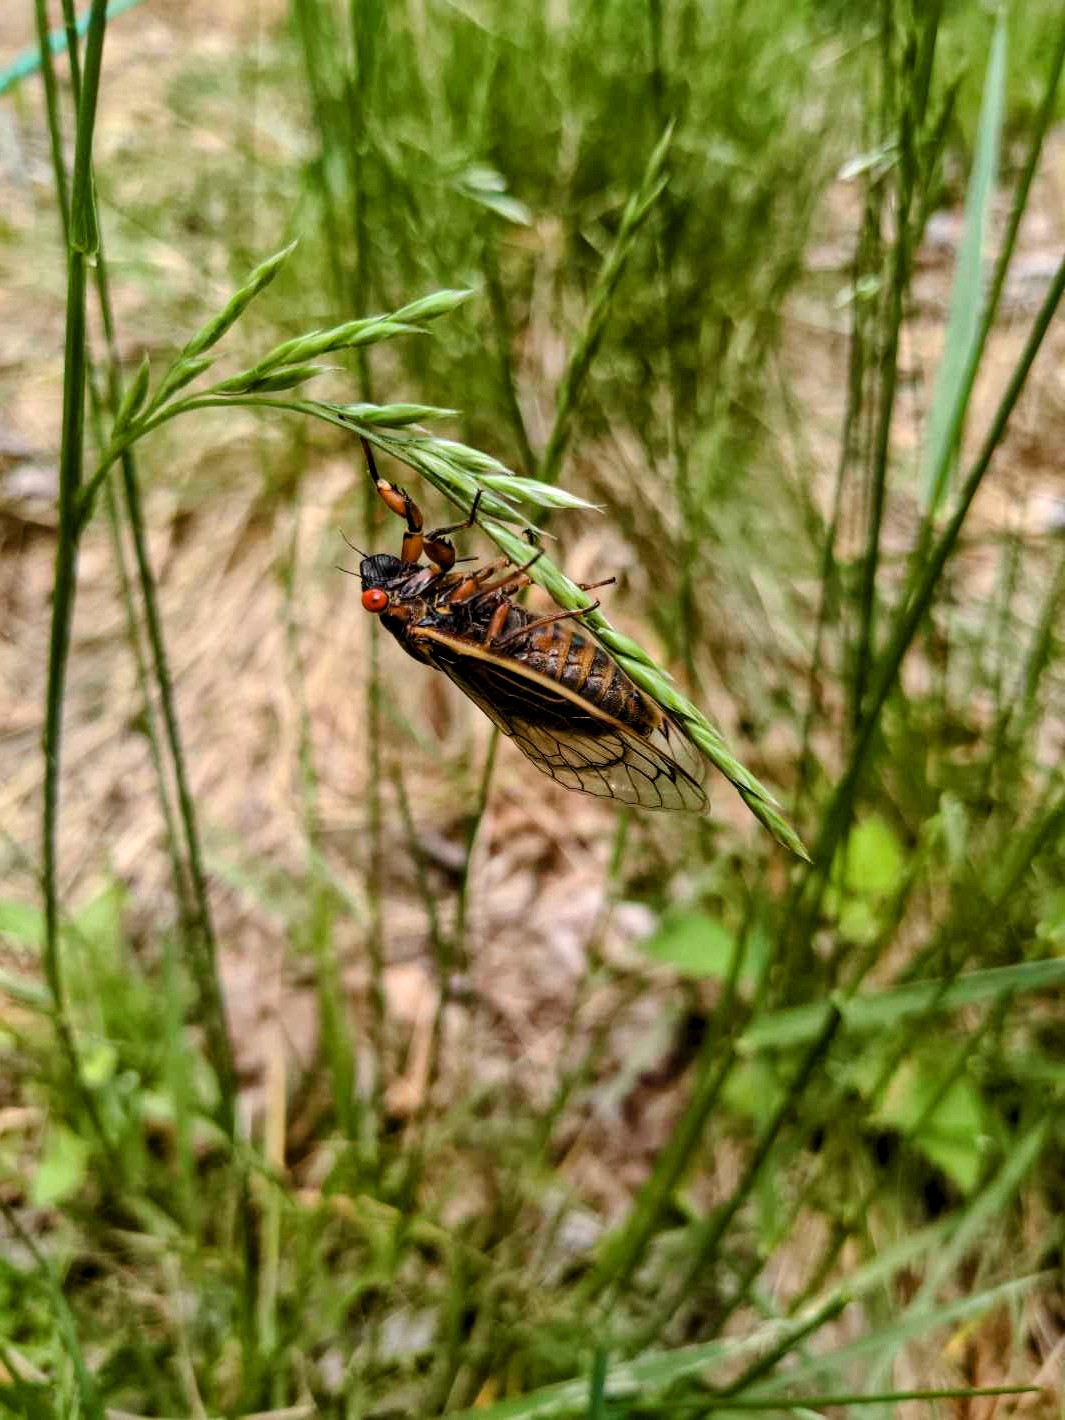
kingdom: Animalia
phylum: Arthropoda
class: Insecta
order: Hemiptera
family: Cicadidae
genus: Magicicada
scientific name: Magicicada septendecim
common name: Periodical cicada
